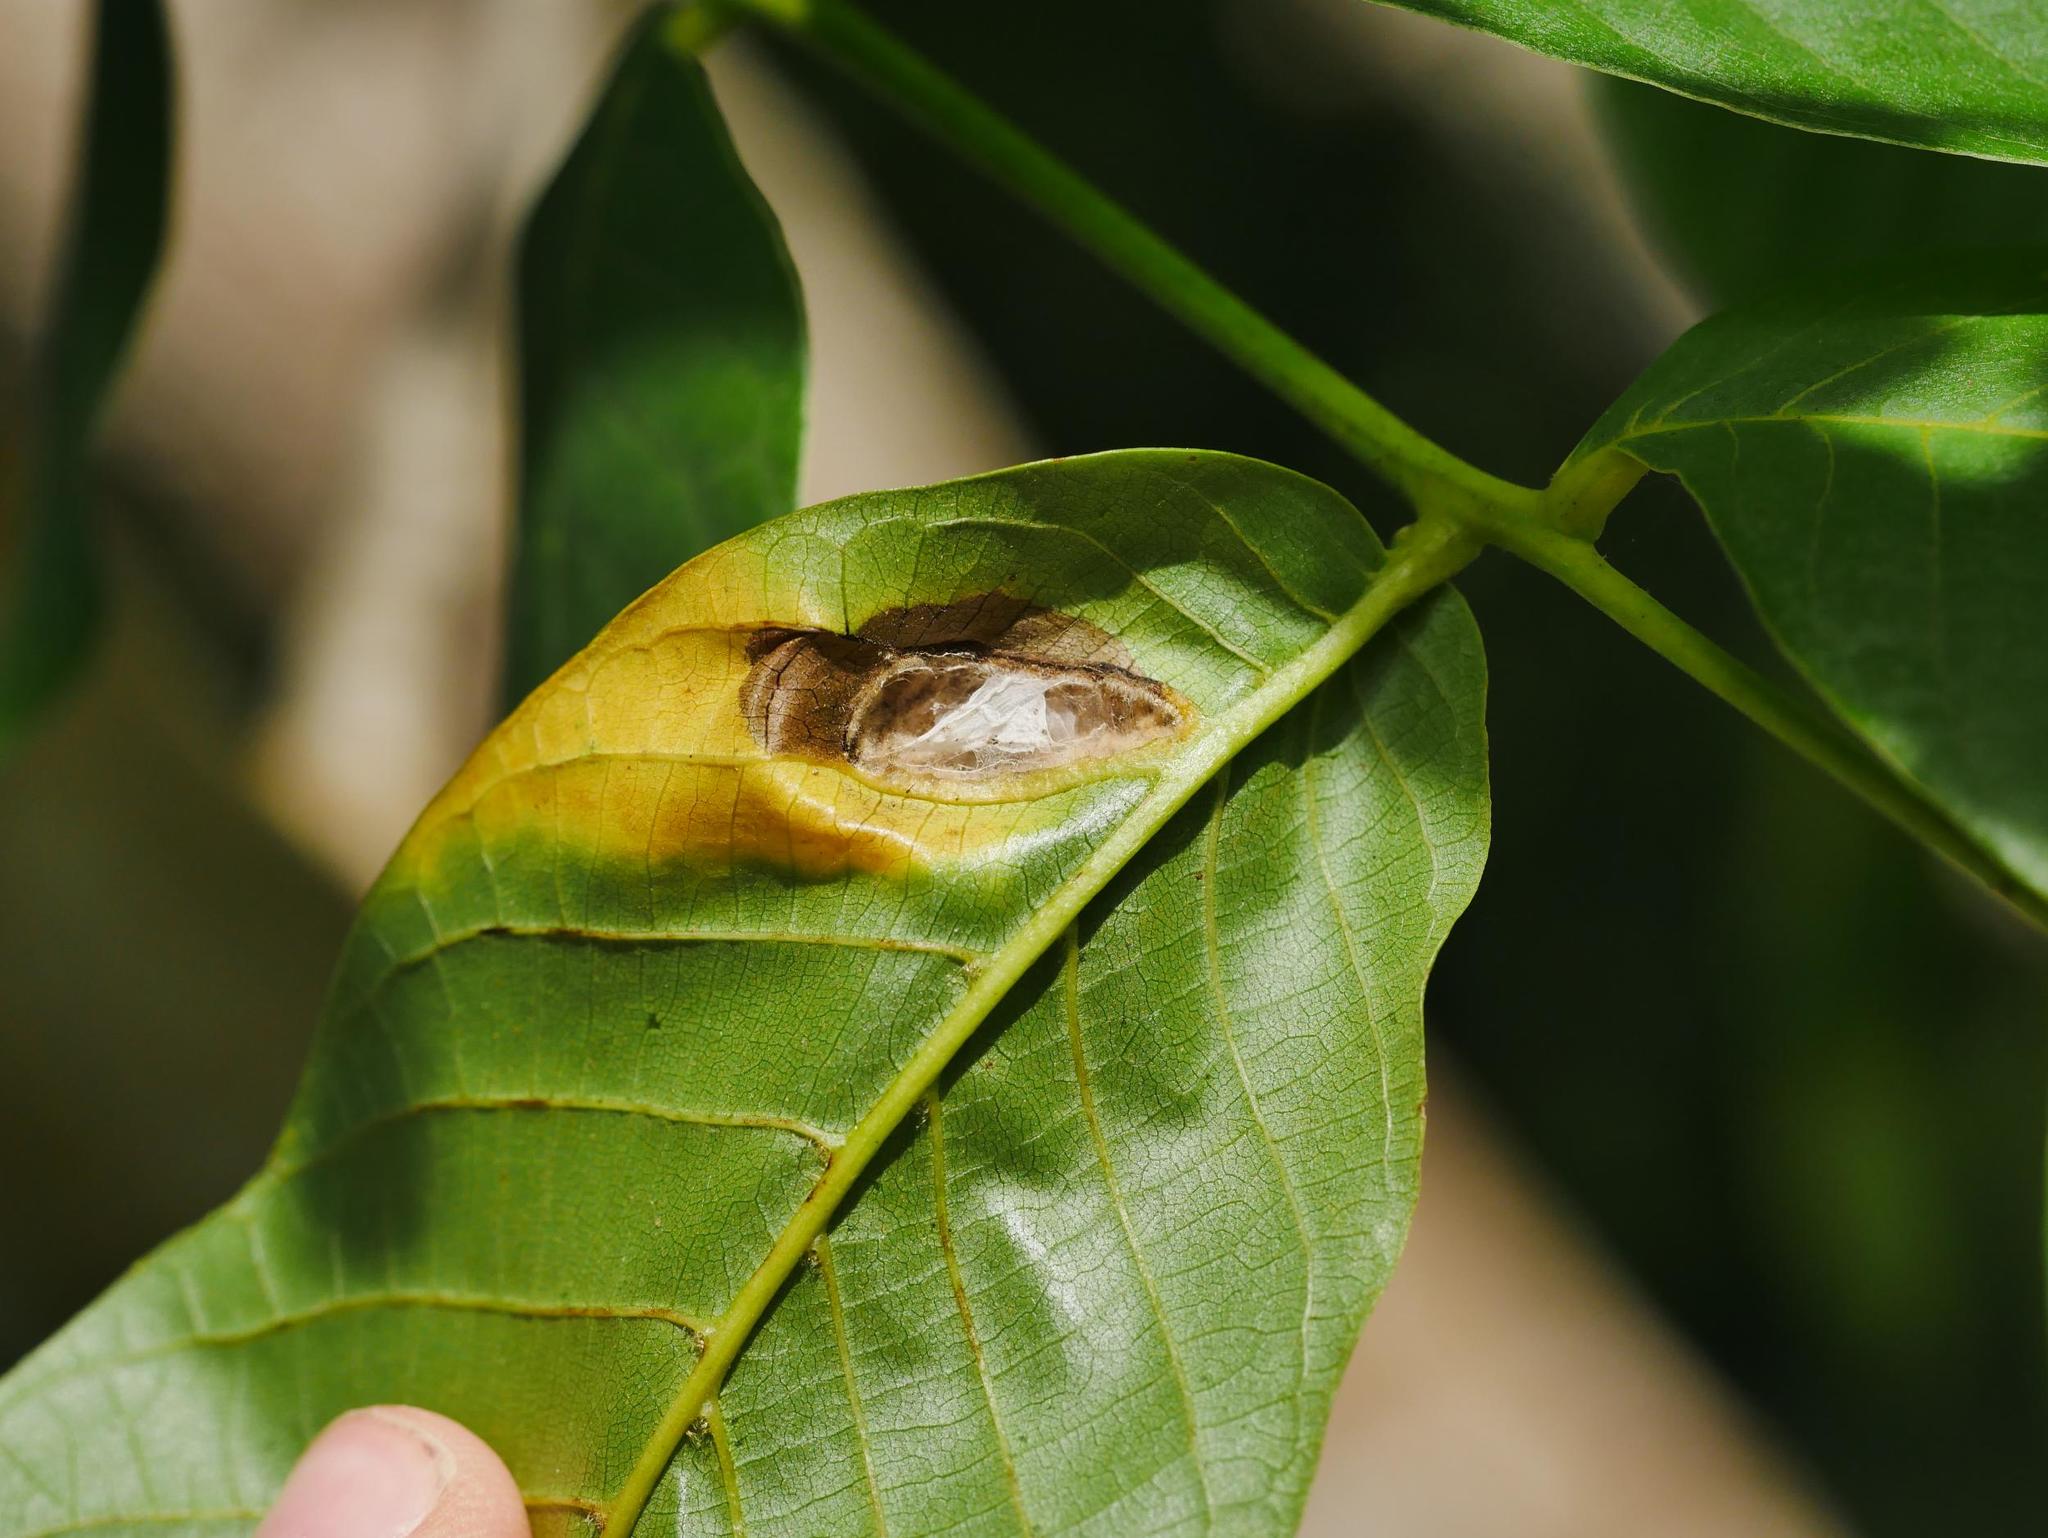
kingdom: Animalia
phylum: Arthropoda
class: Arachnida
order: Trombidiformes
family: Eriophyidae
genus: Aceria
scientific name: Aceria erinea
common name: Persian walnut erineum mite
